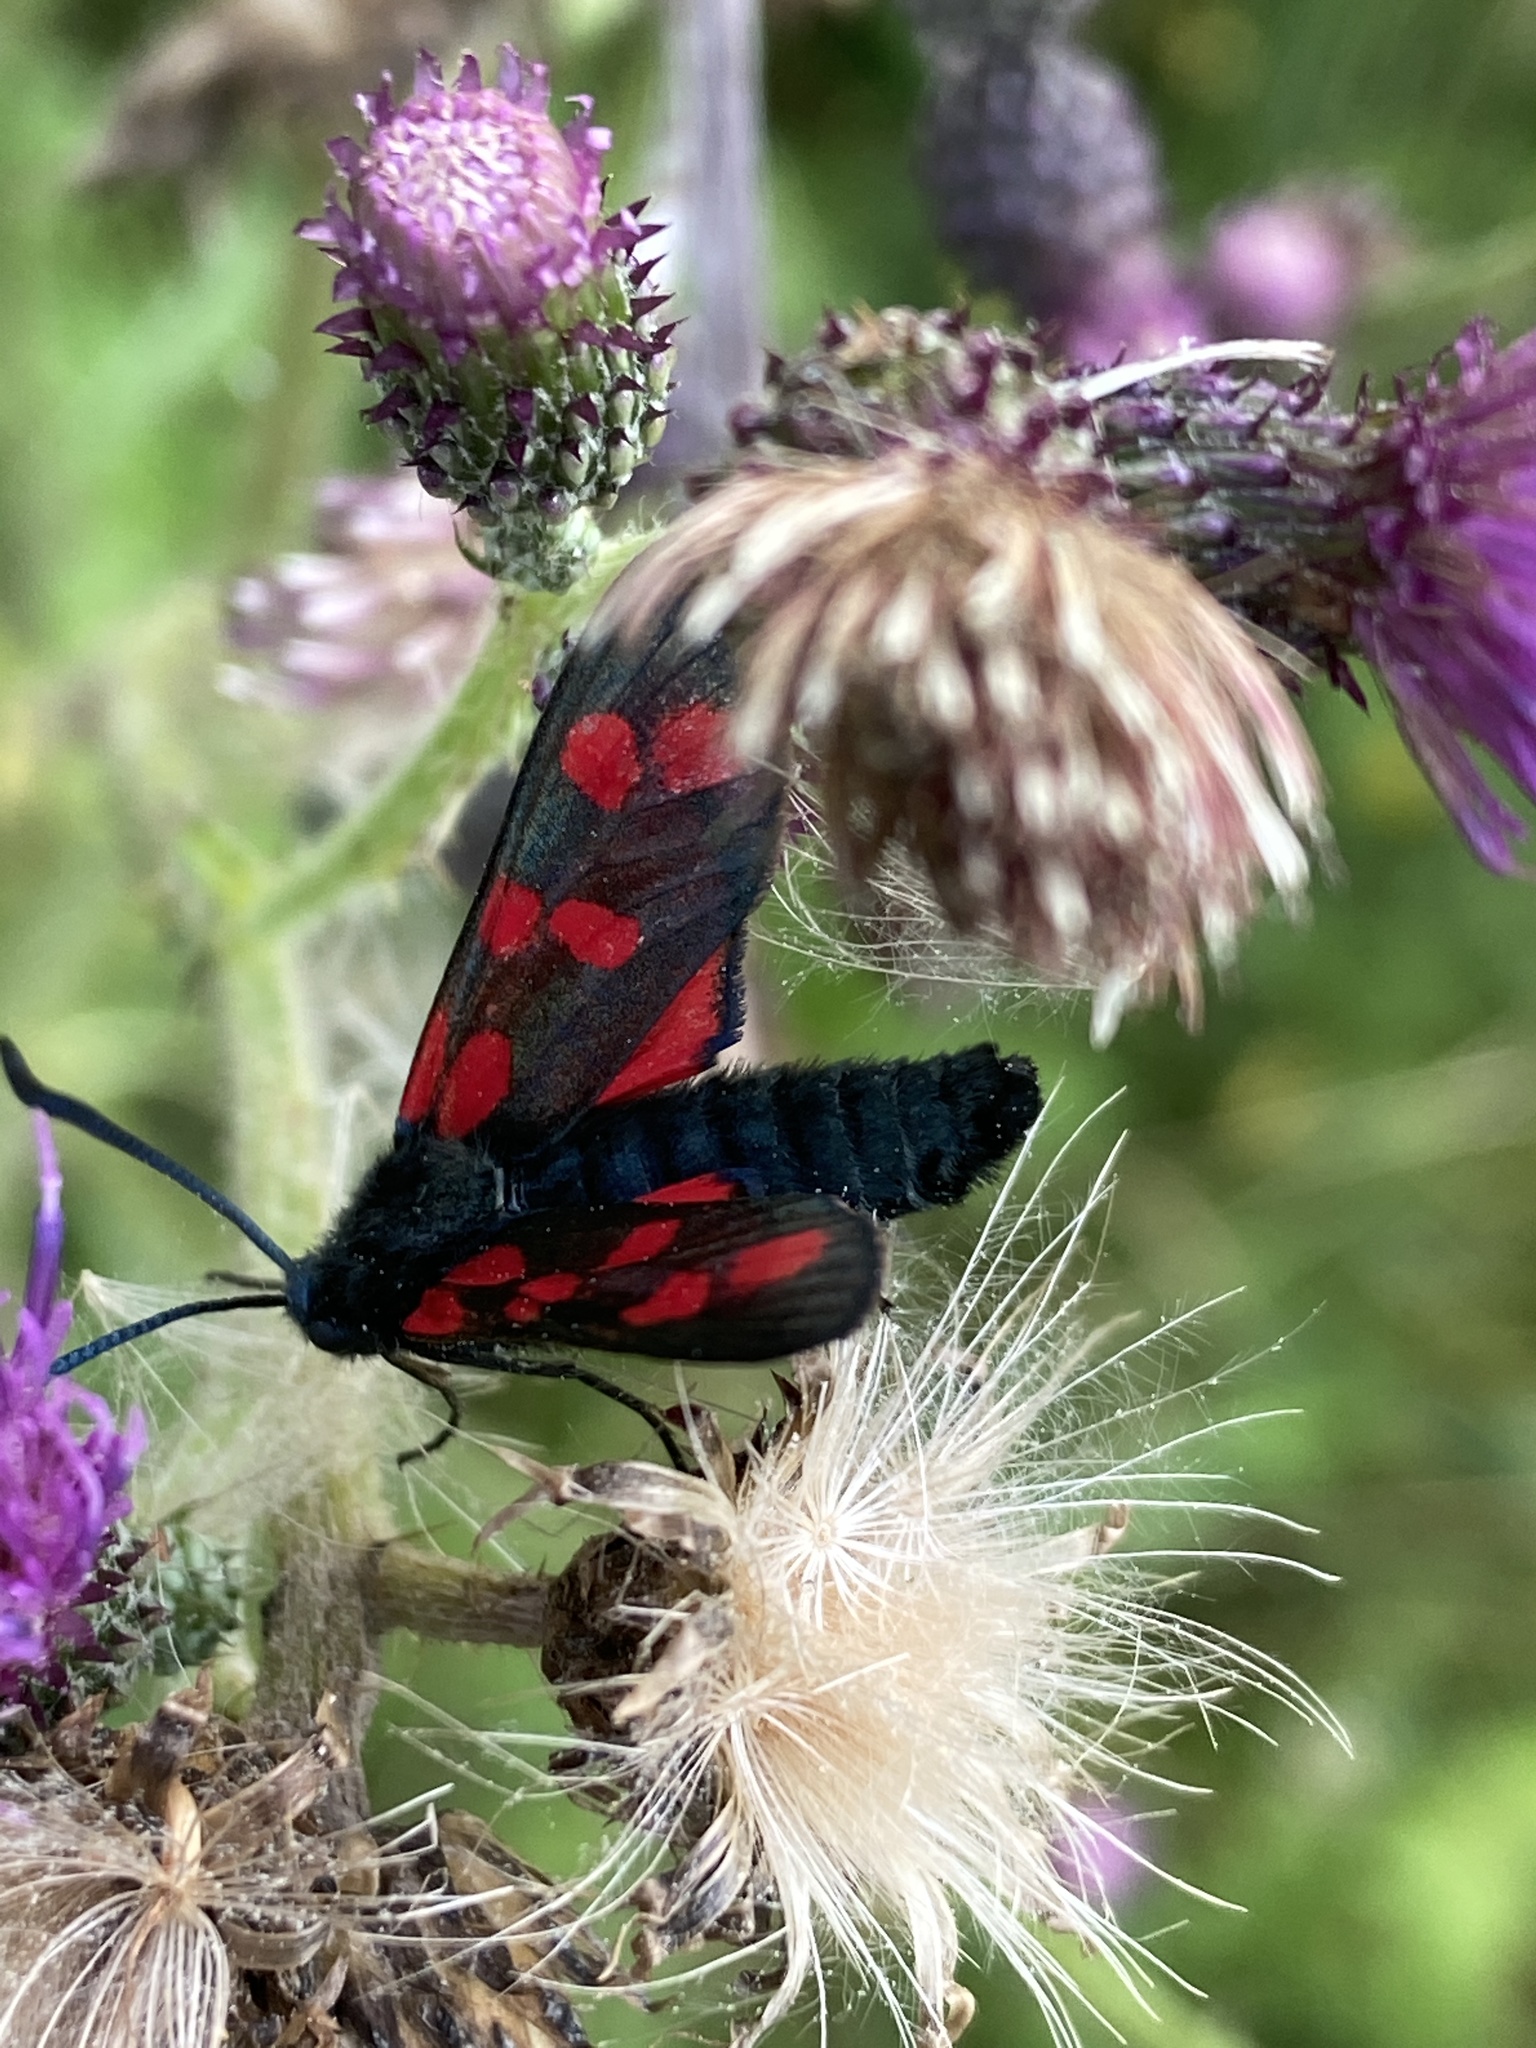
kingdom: Animalia
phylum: Arthropoda
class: Insecta
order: Lepidoptera
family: Zygaenidae
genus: Zygaena
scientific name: Zygaena filipendulae
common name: Six-spot burnet
